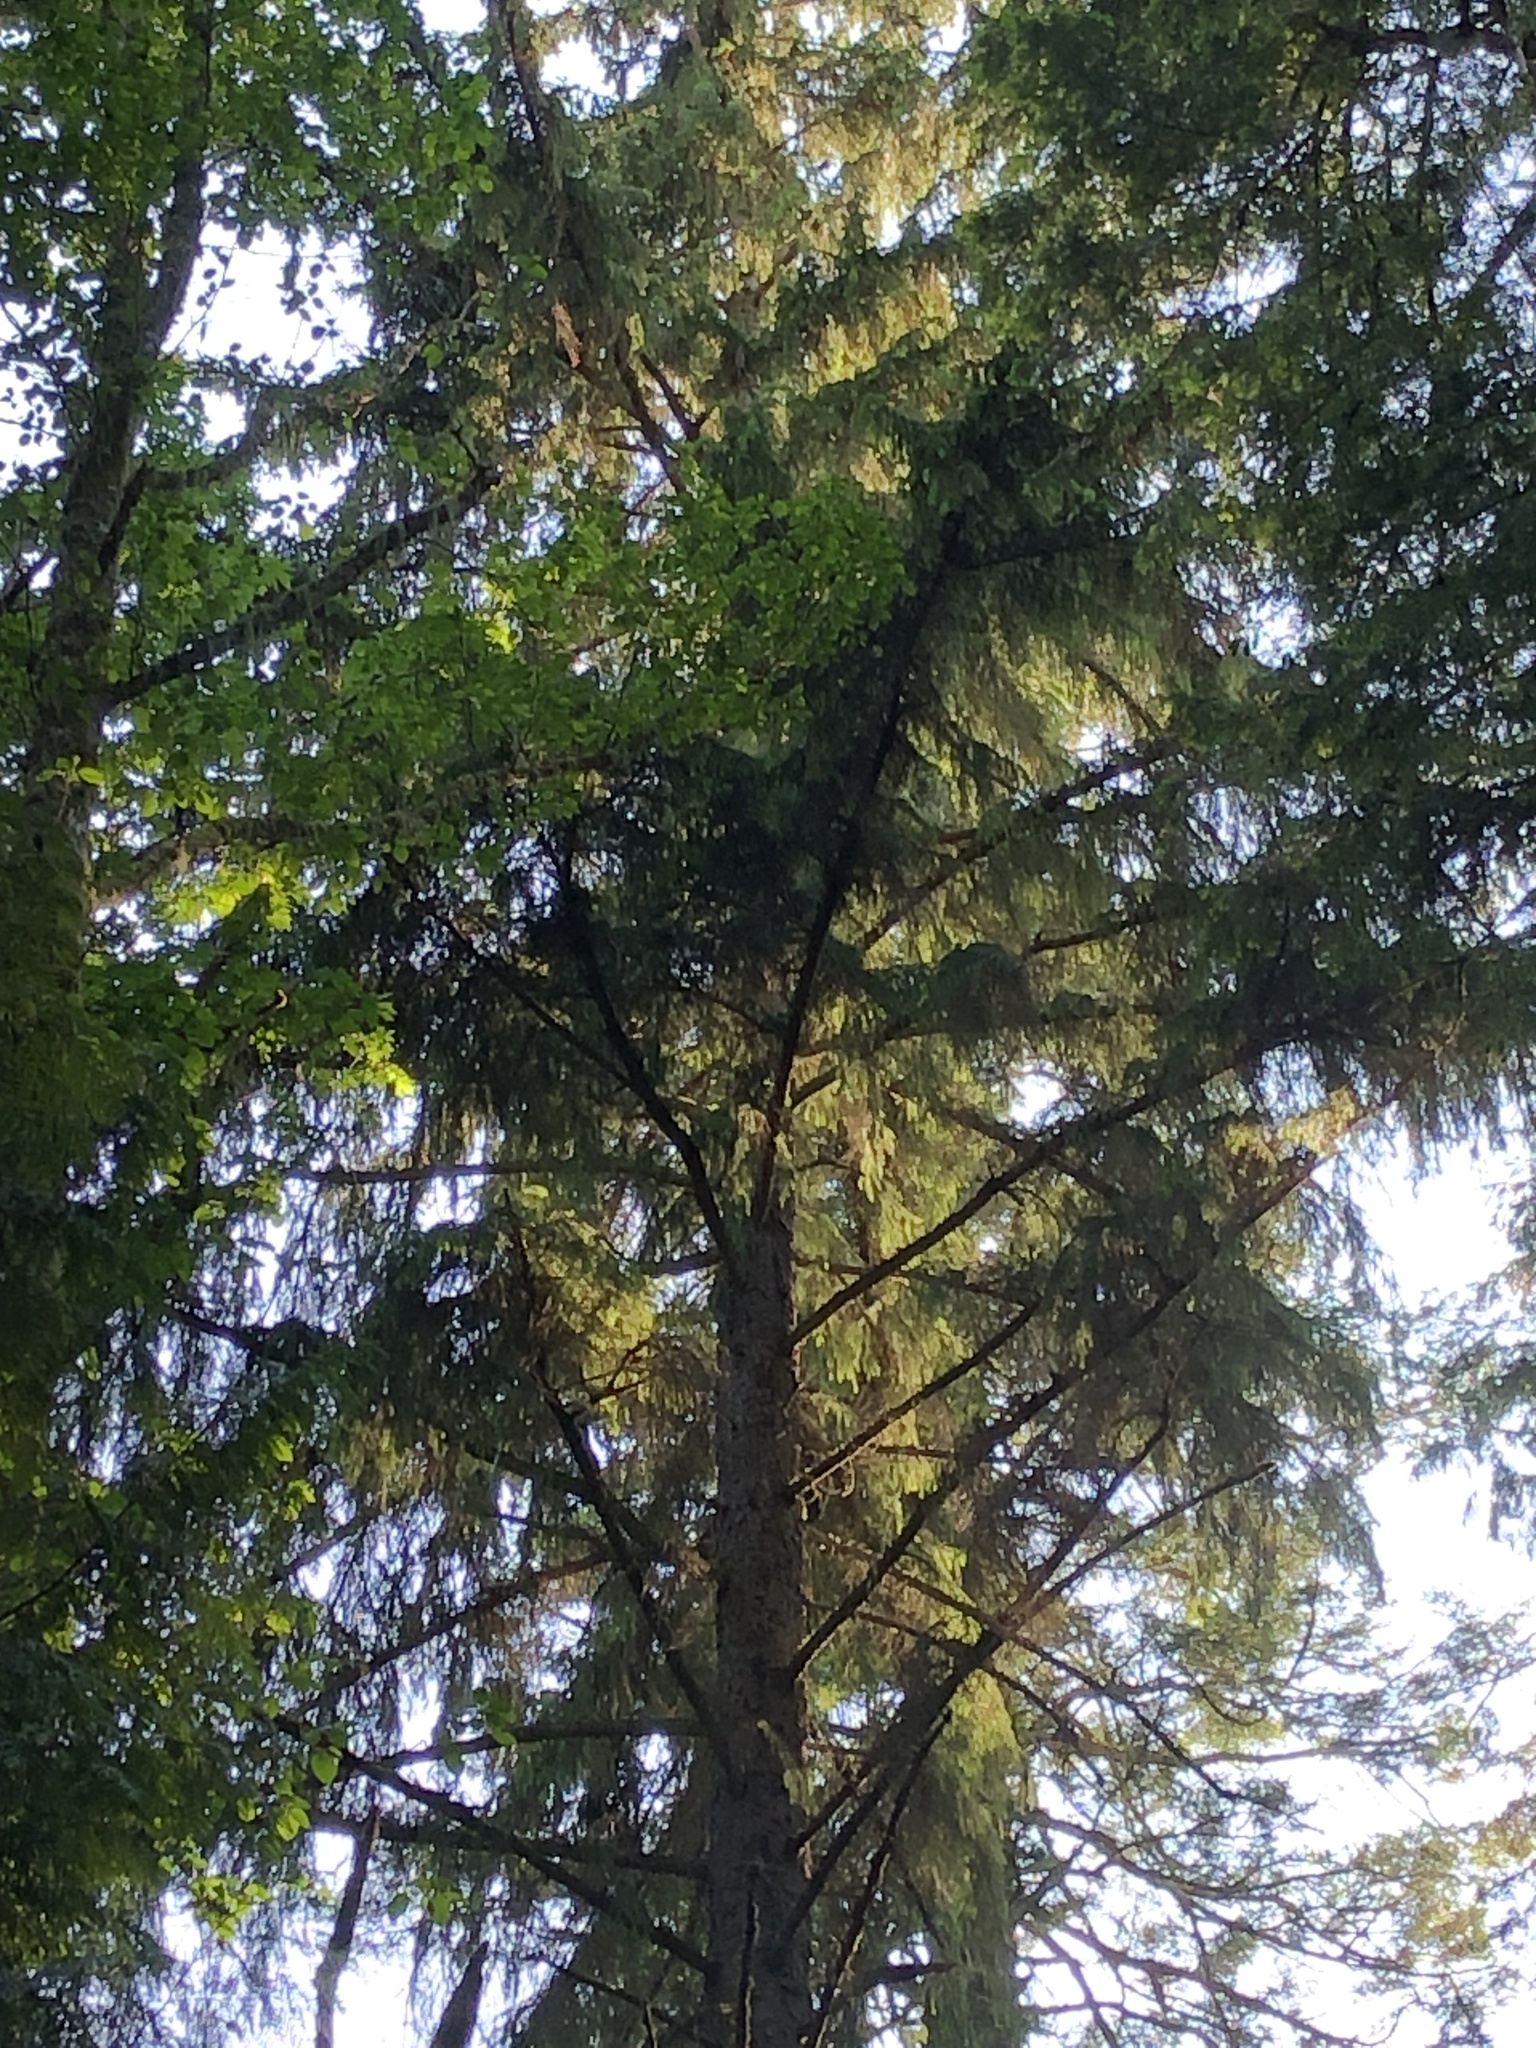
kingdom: Plantae
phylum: Tracheophyta
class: Pinopsida
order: Pinales
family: Pinaceae
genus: Picea
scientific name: Picea sitchensis
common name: Sitka spruce
